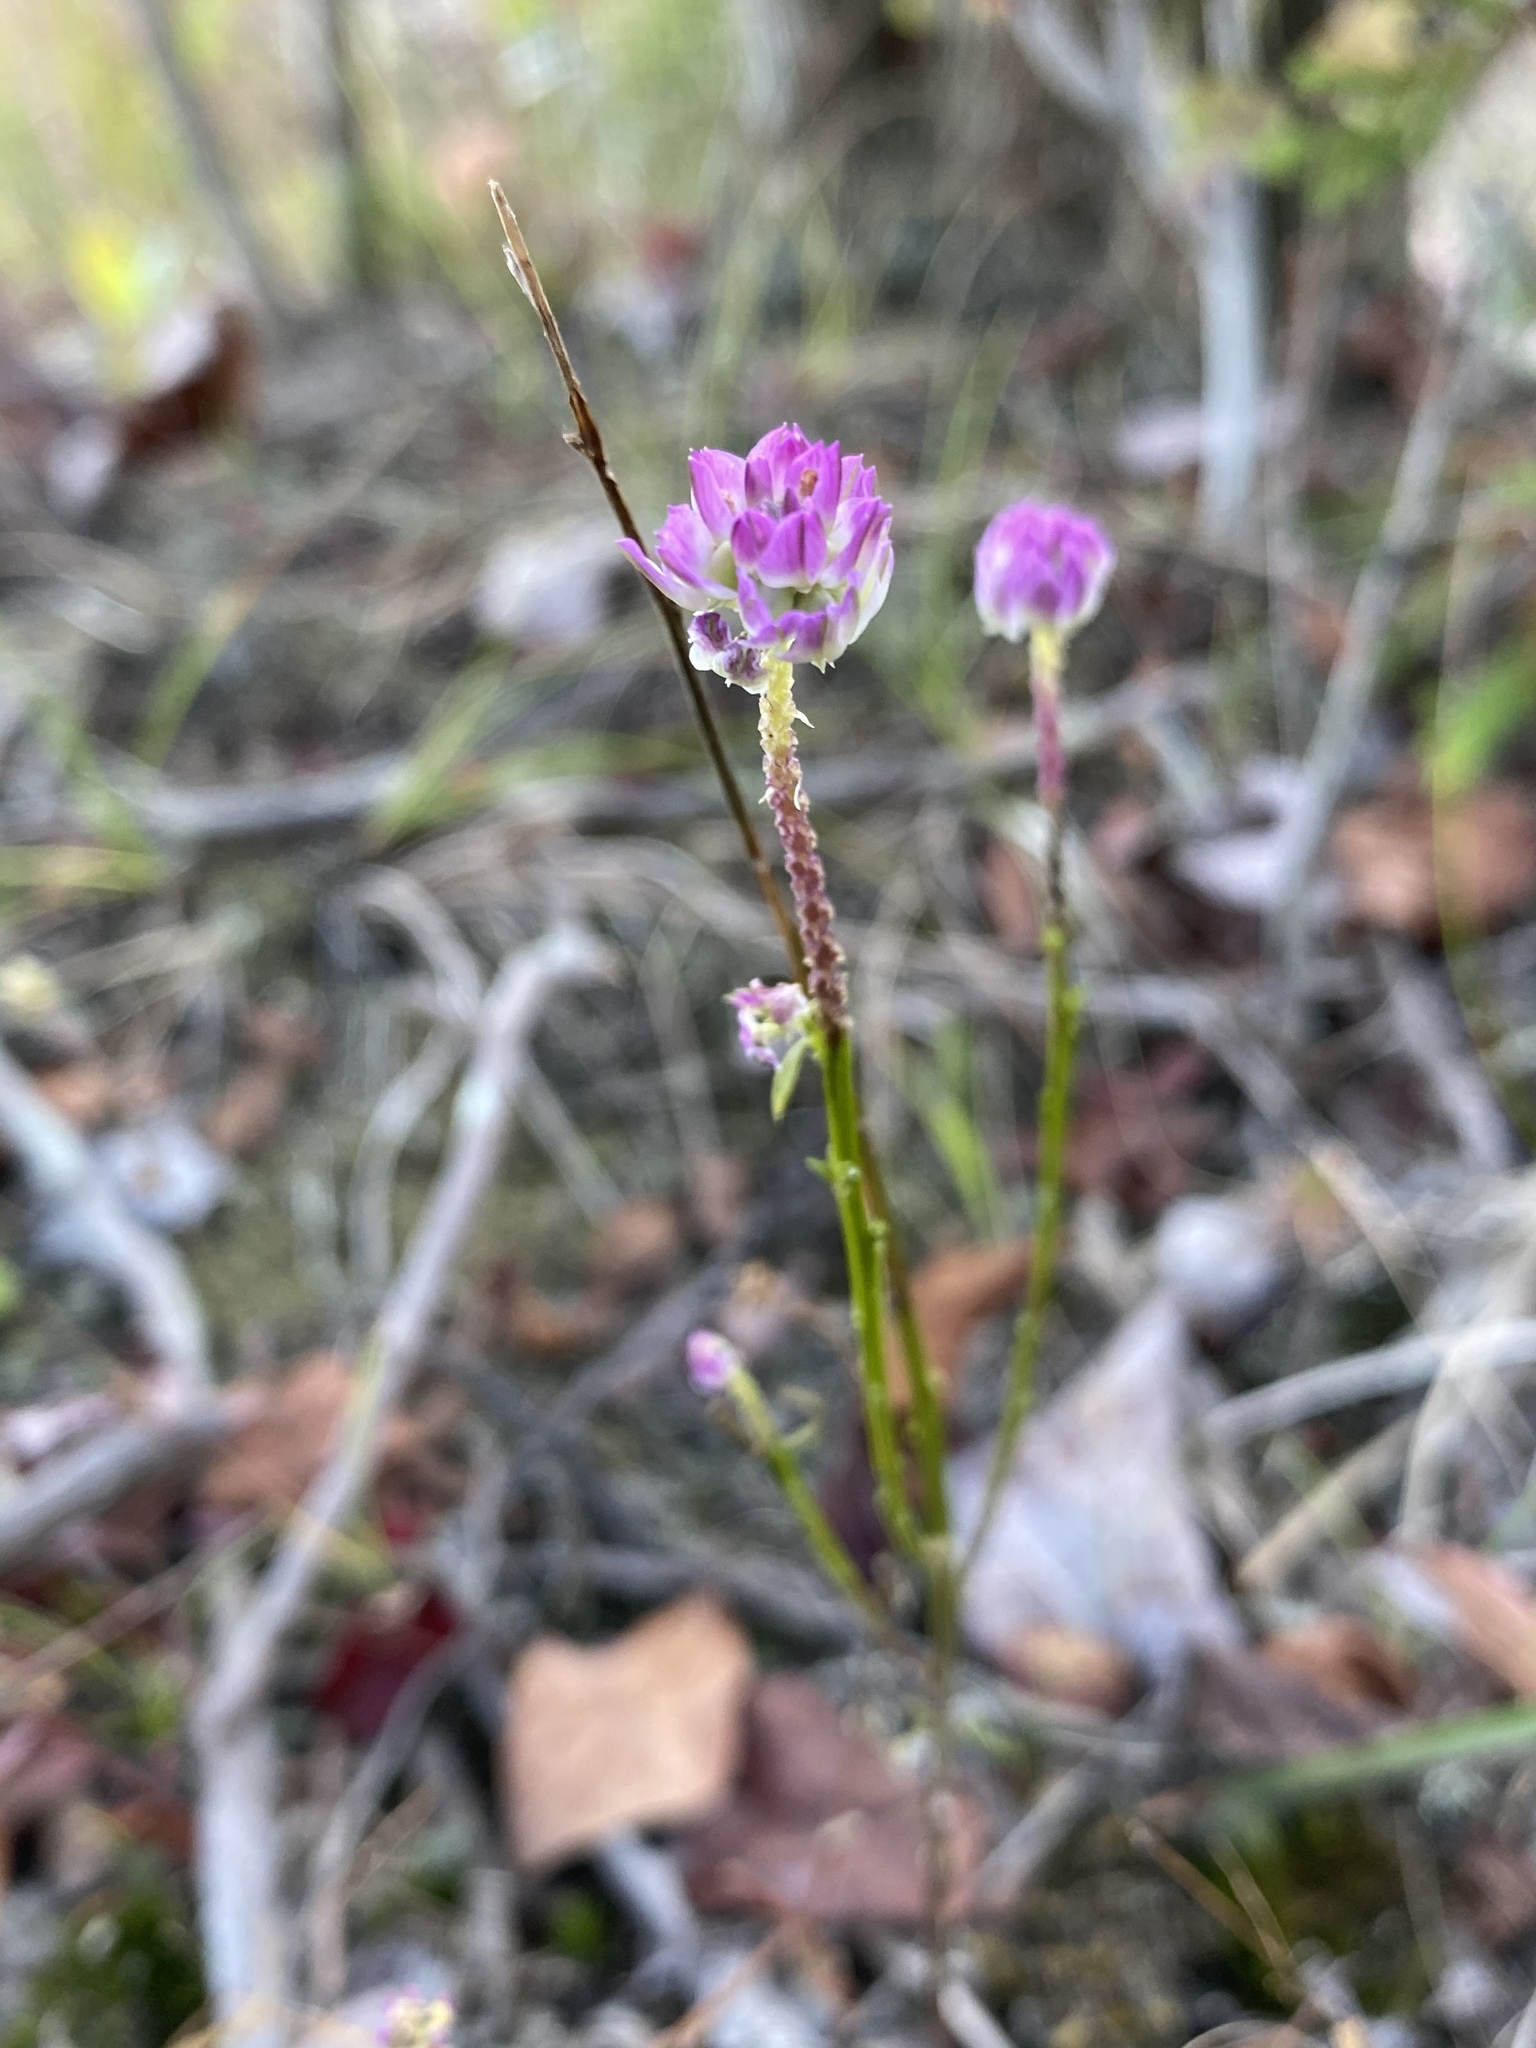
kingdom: Plantae
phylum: Tracheophyta
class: Magnoliopsida
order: Fabales
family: Polygalaceae
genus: Polygala
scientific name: Polygala sanguinea
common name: Blood milkwort
